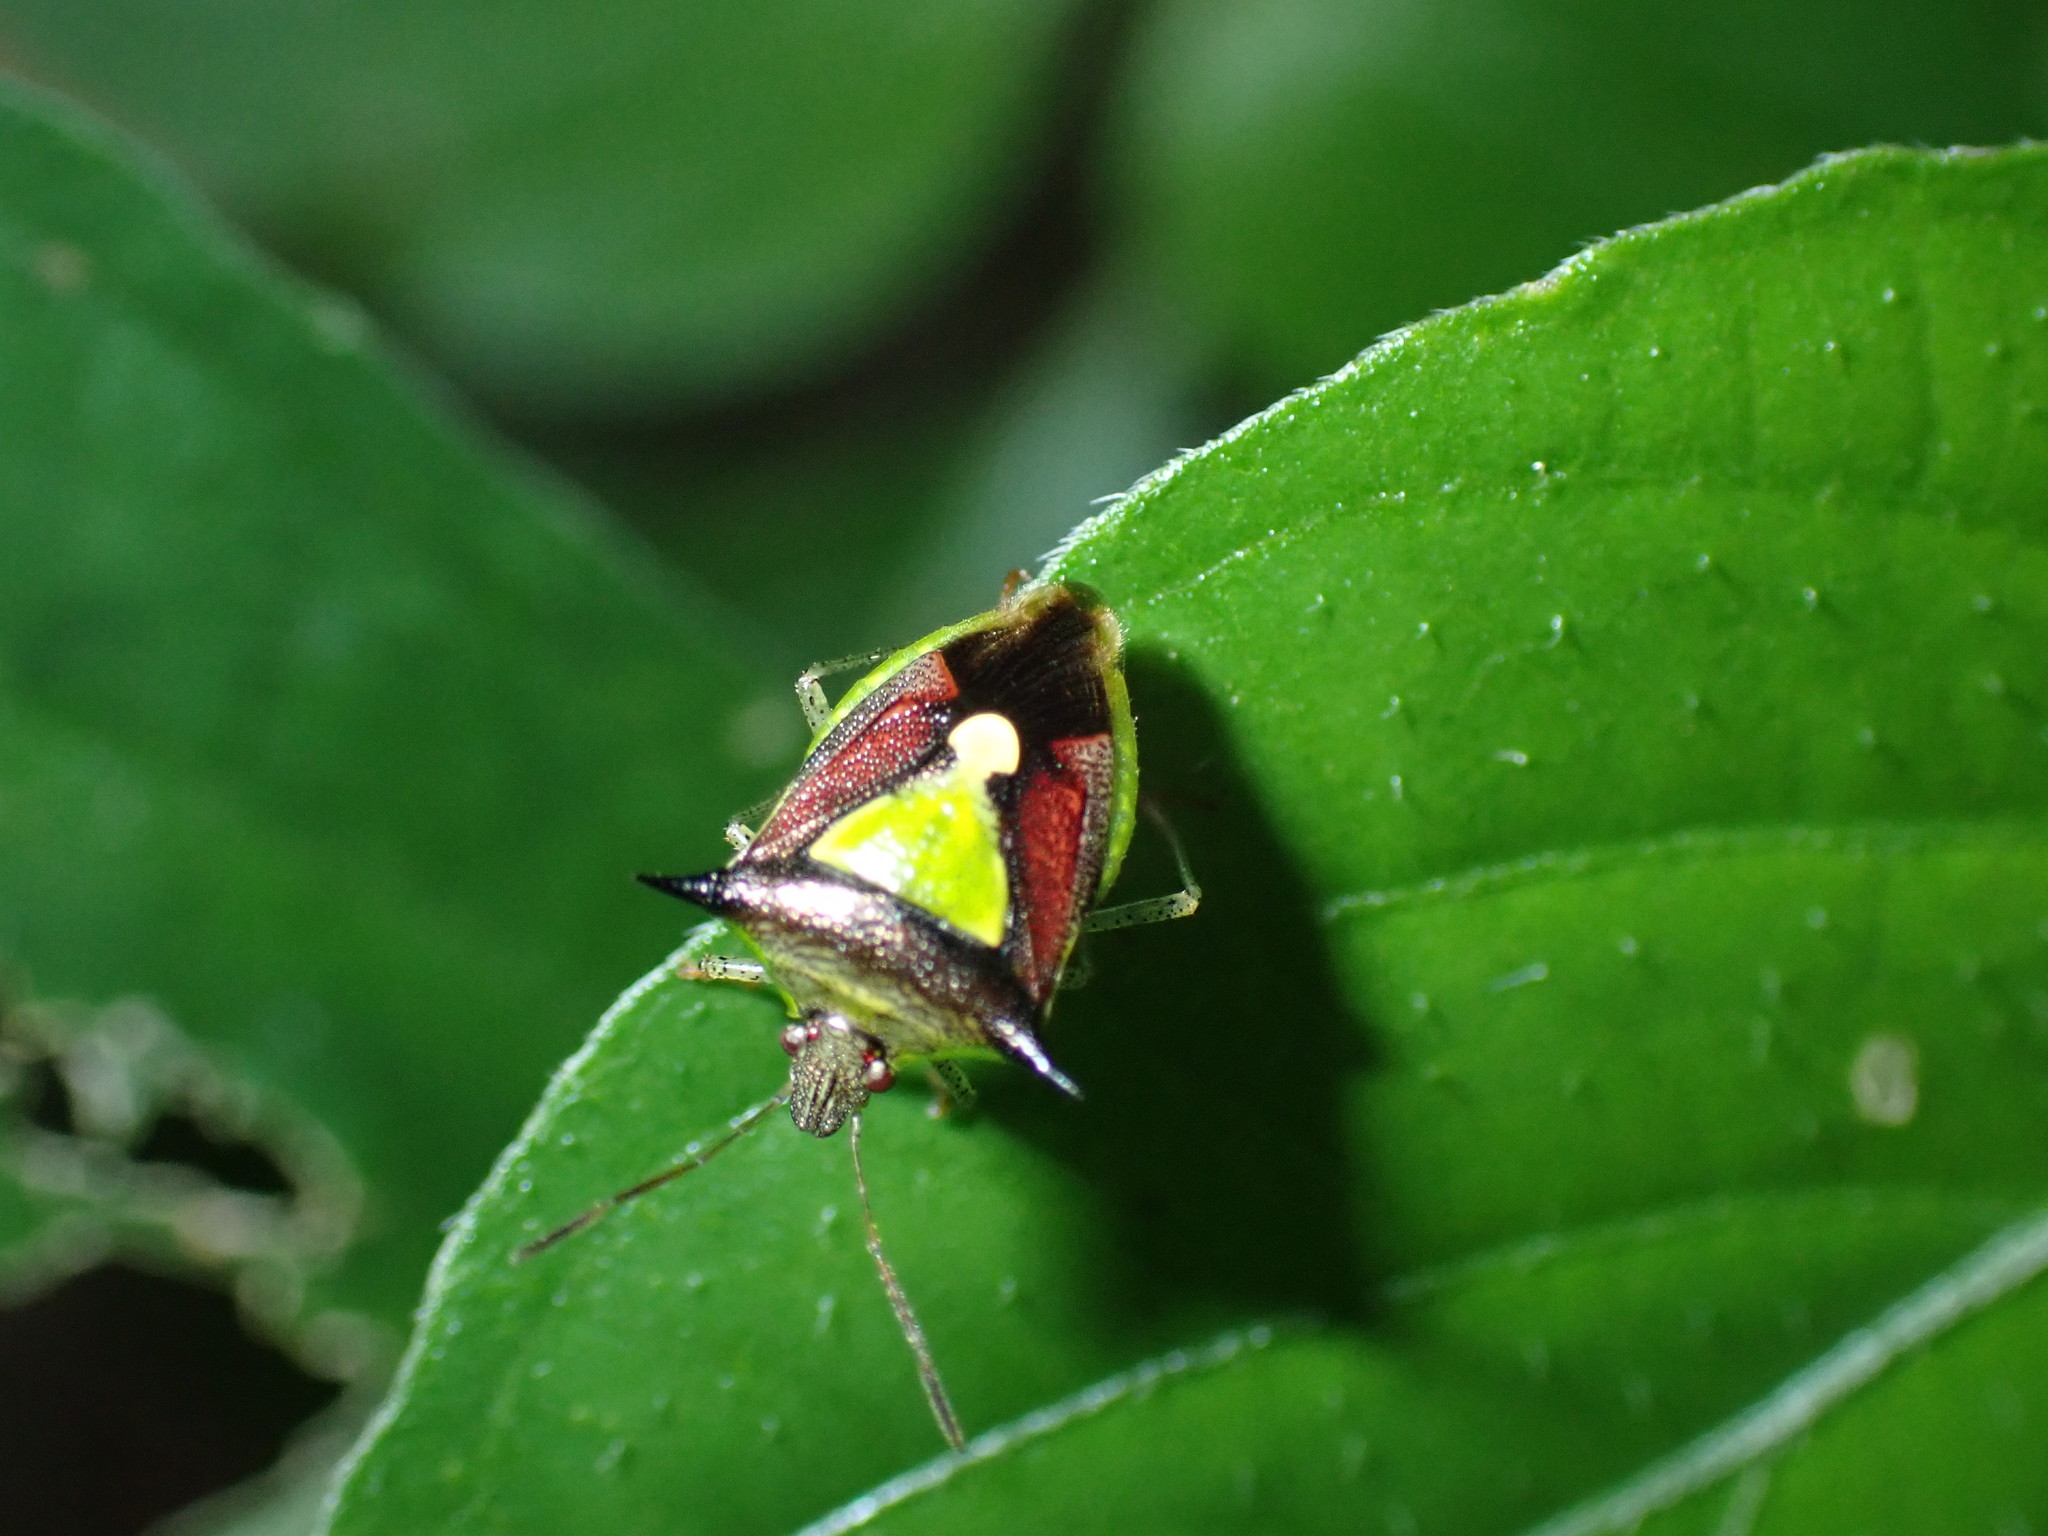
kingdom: Animalia
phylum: Arthropoda
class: Insecta
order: Hemiptera
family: Pentatomidae
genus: Carbula
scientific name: Carbula scutellata
